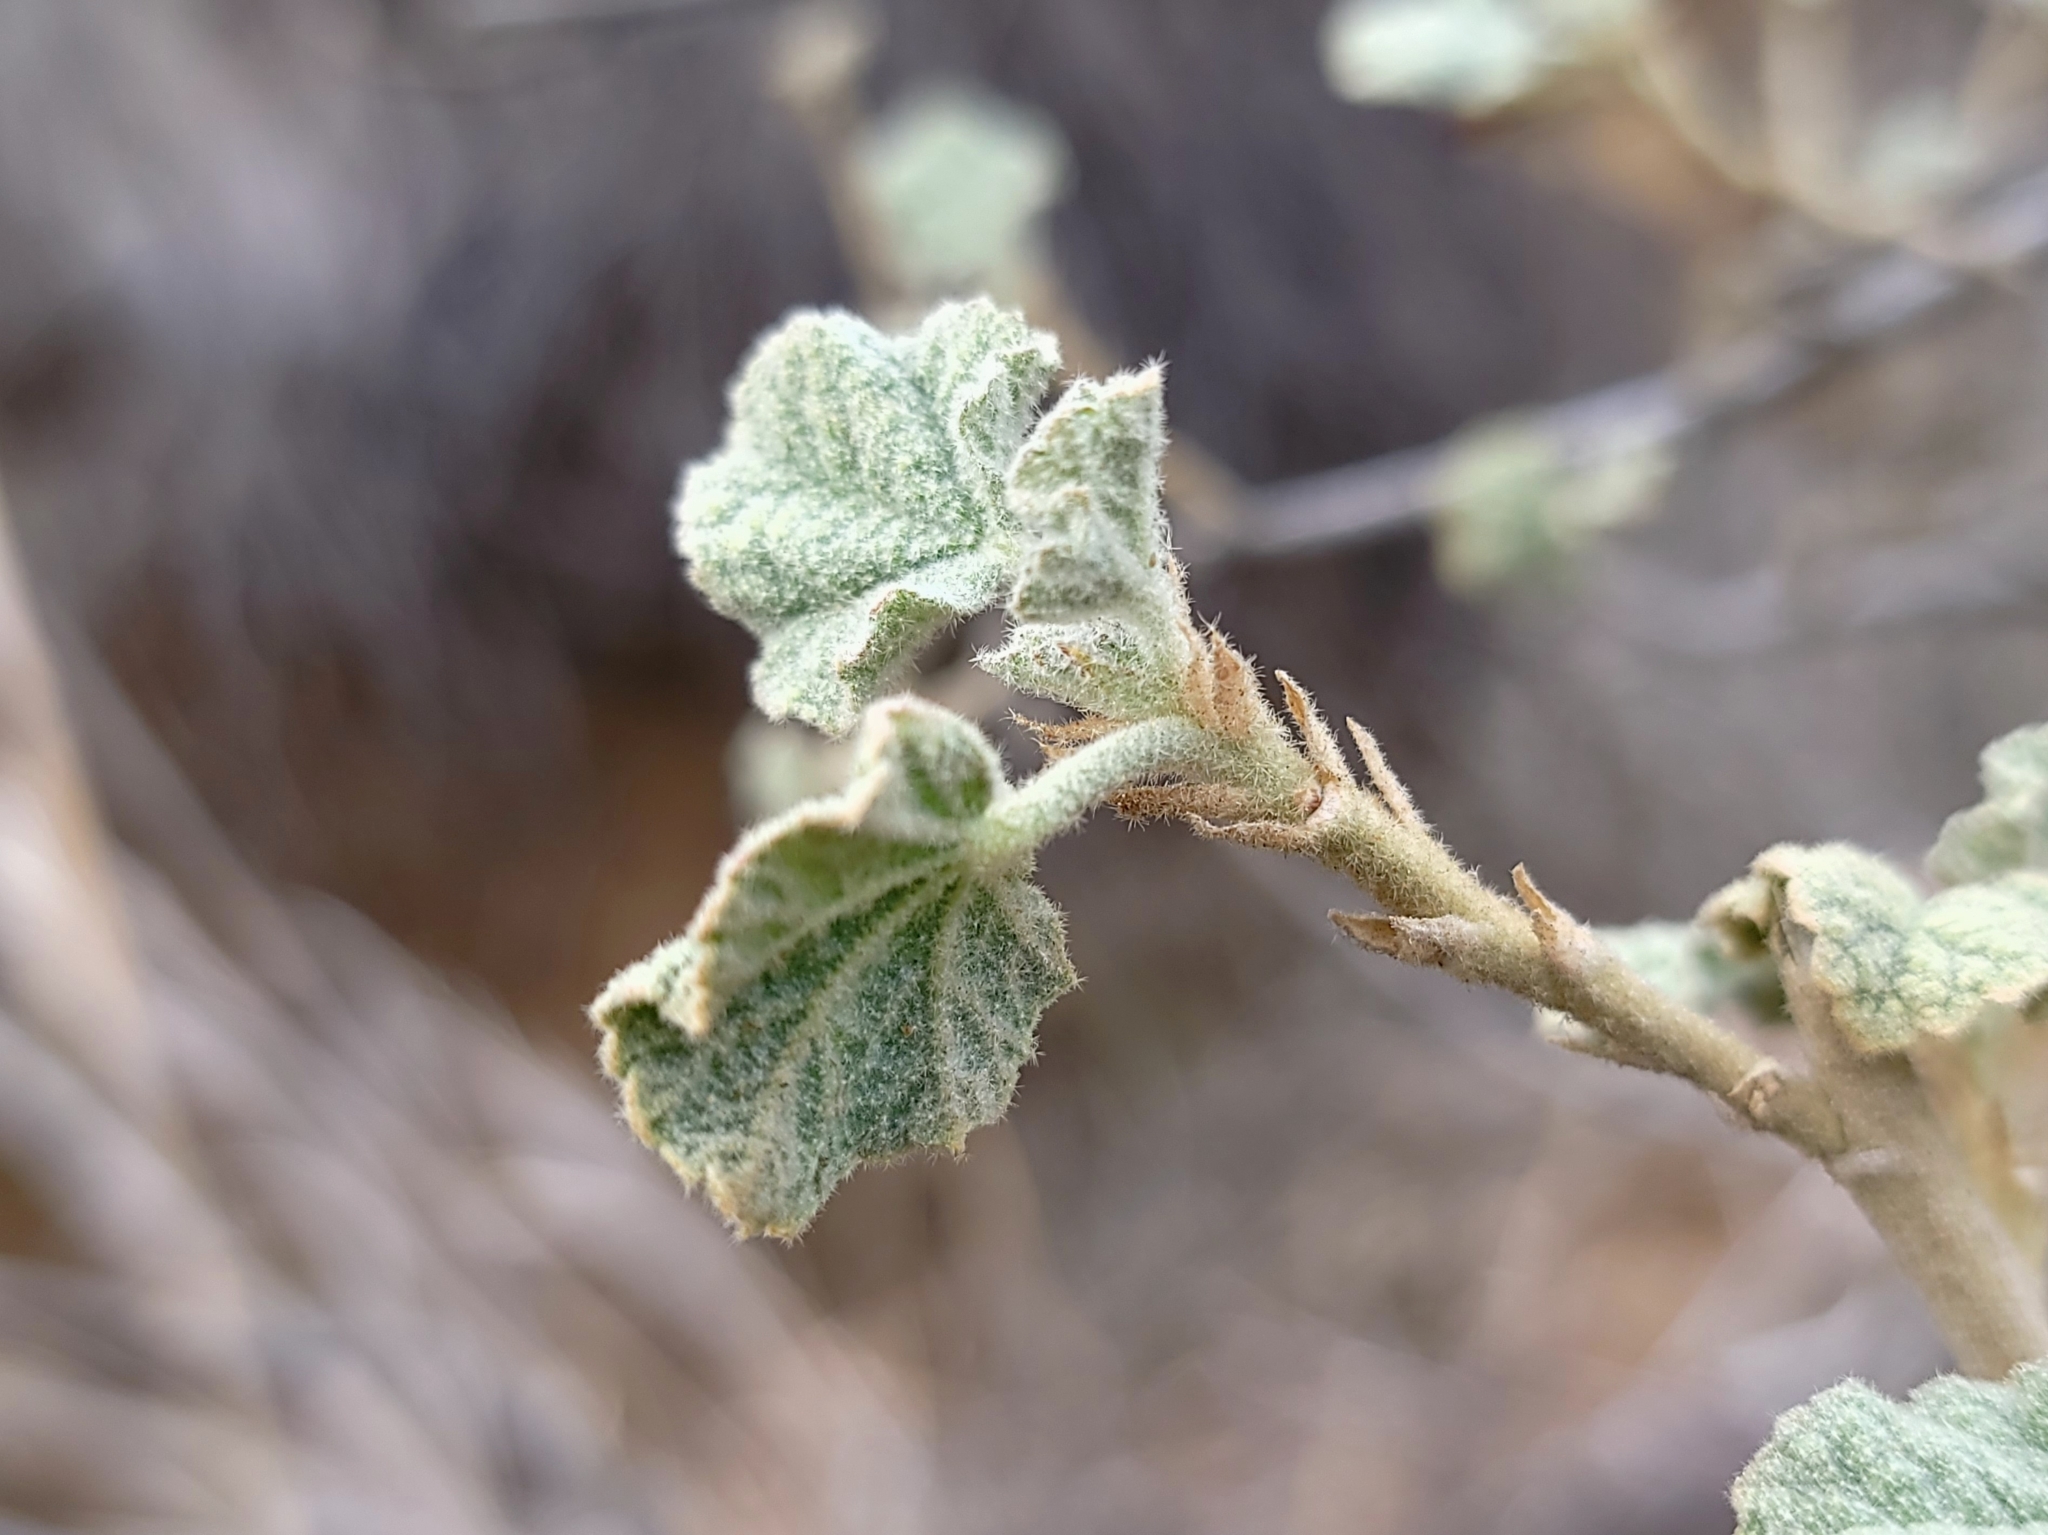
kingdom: Plantae
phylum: Tracheophyta
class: Magnoliopsida
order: Malvales
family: Malvaceae
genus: Malacothamnus
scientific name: Malacothamnus marrubioides
